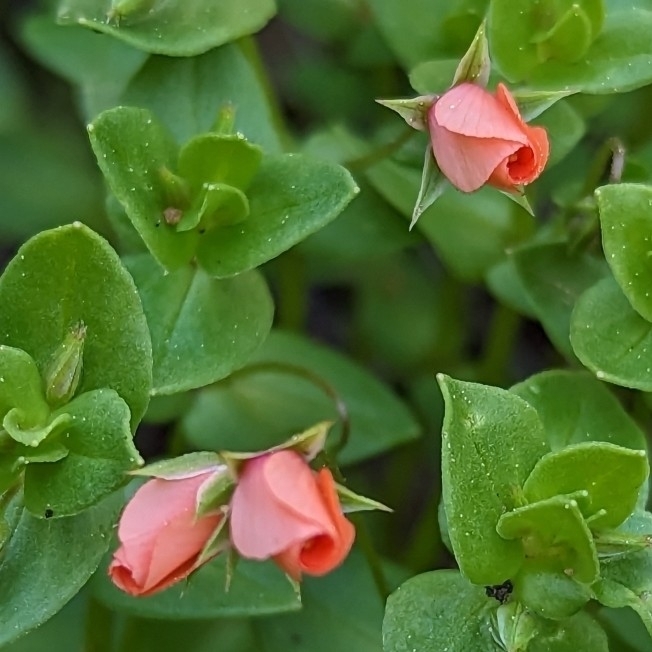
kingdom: Plantae
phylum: Tracheophyta
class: Magnoliopsida
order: Ericales
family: Primulaceae
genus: Lysimachia
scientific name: Lysimachia arvensis
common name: Scarlet pimpernel
